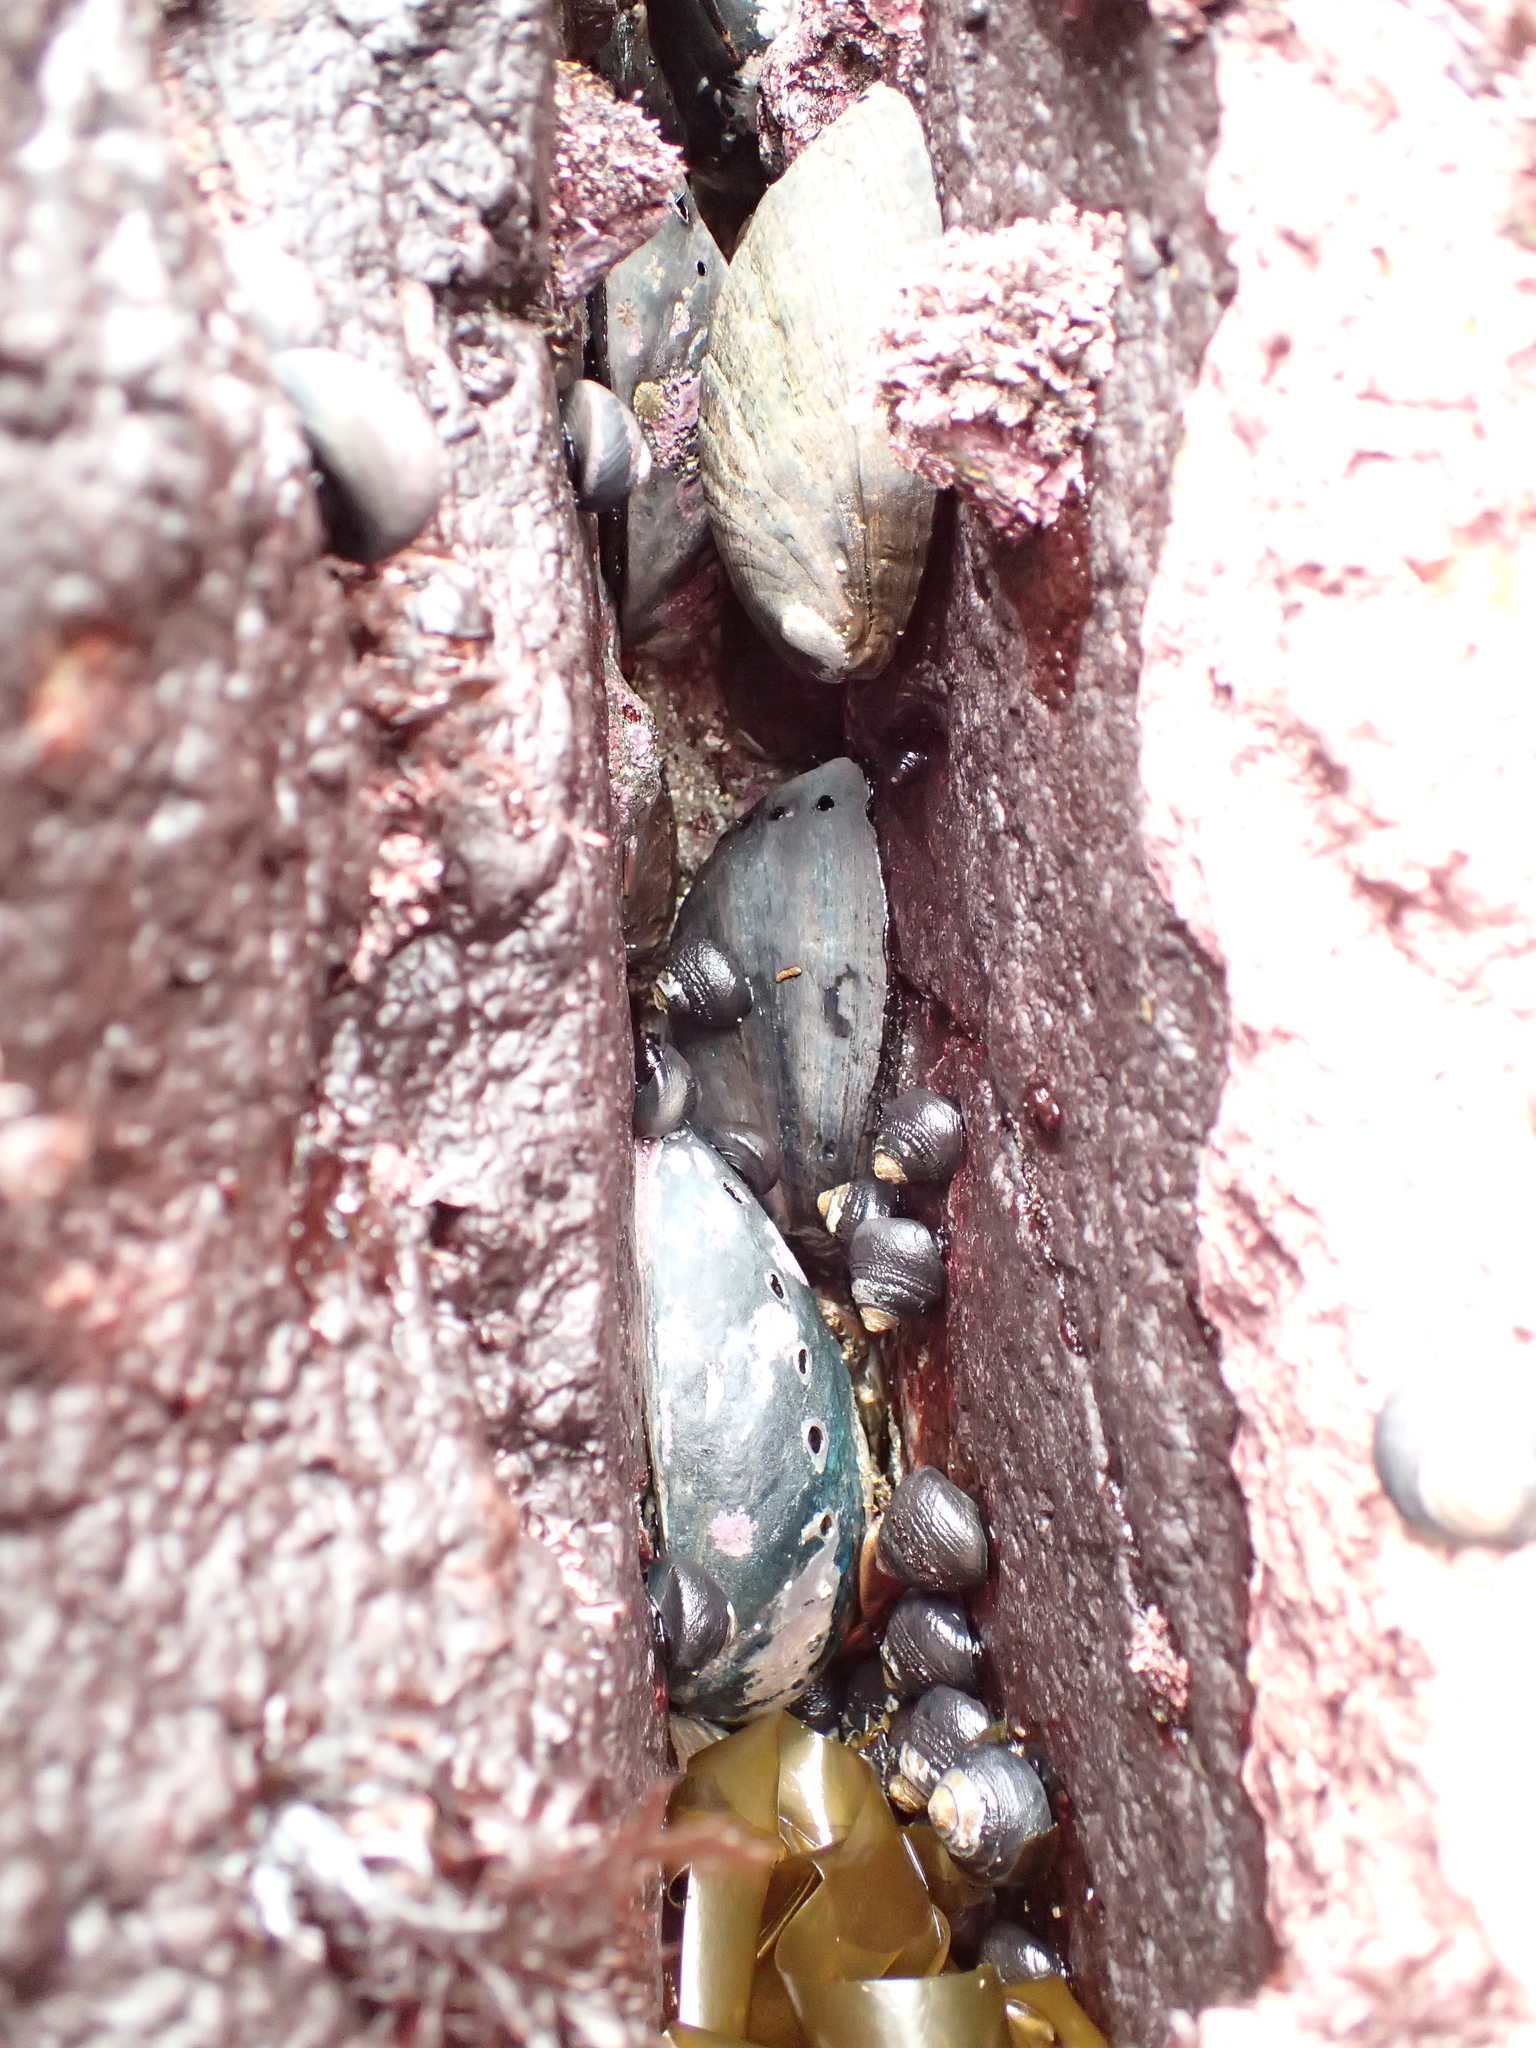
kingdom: Animalia
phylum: Mollusca
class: Gastropoda
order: Lepetellida
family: Haliotidae
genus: Haliotis
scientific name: Haliotis cracherodii
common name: Black abalone
